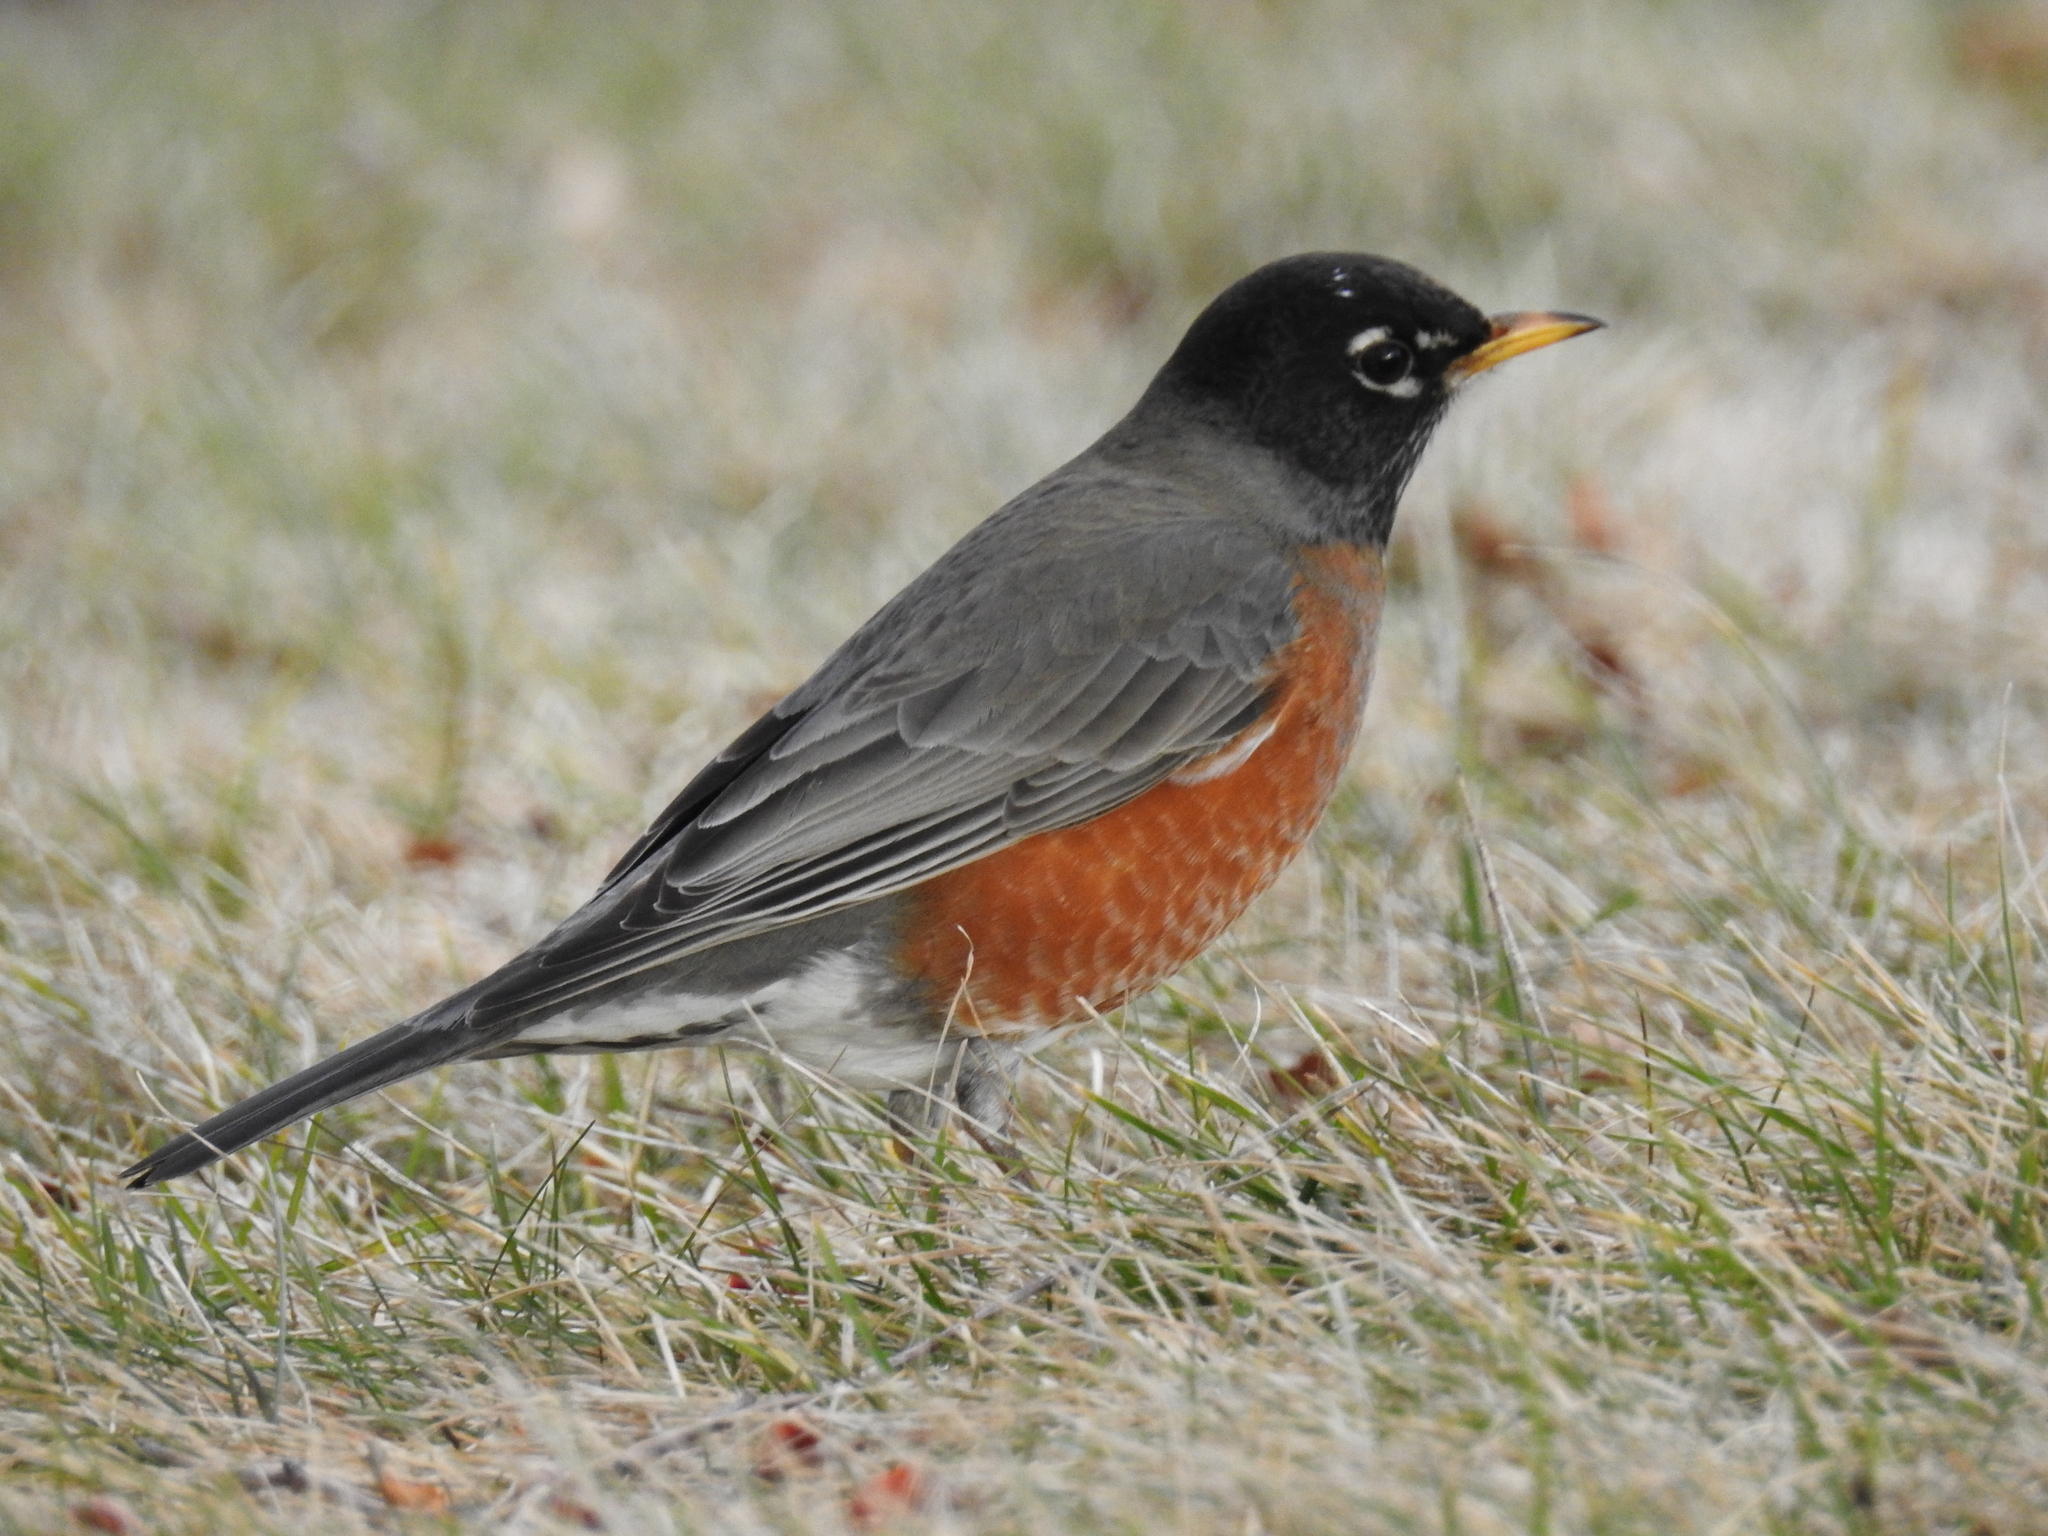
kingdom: Animalia
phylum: Chordata
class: Aves
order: Passeriformes
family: Turdidae
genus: Turdus
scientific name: Turdus migratorius
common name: American robin
